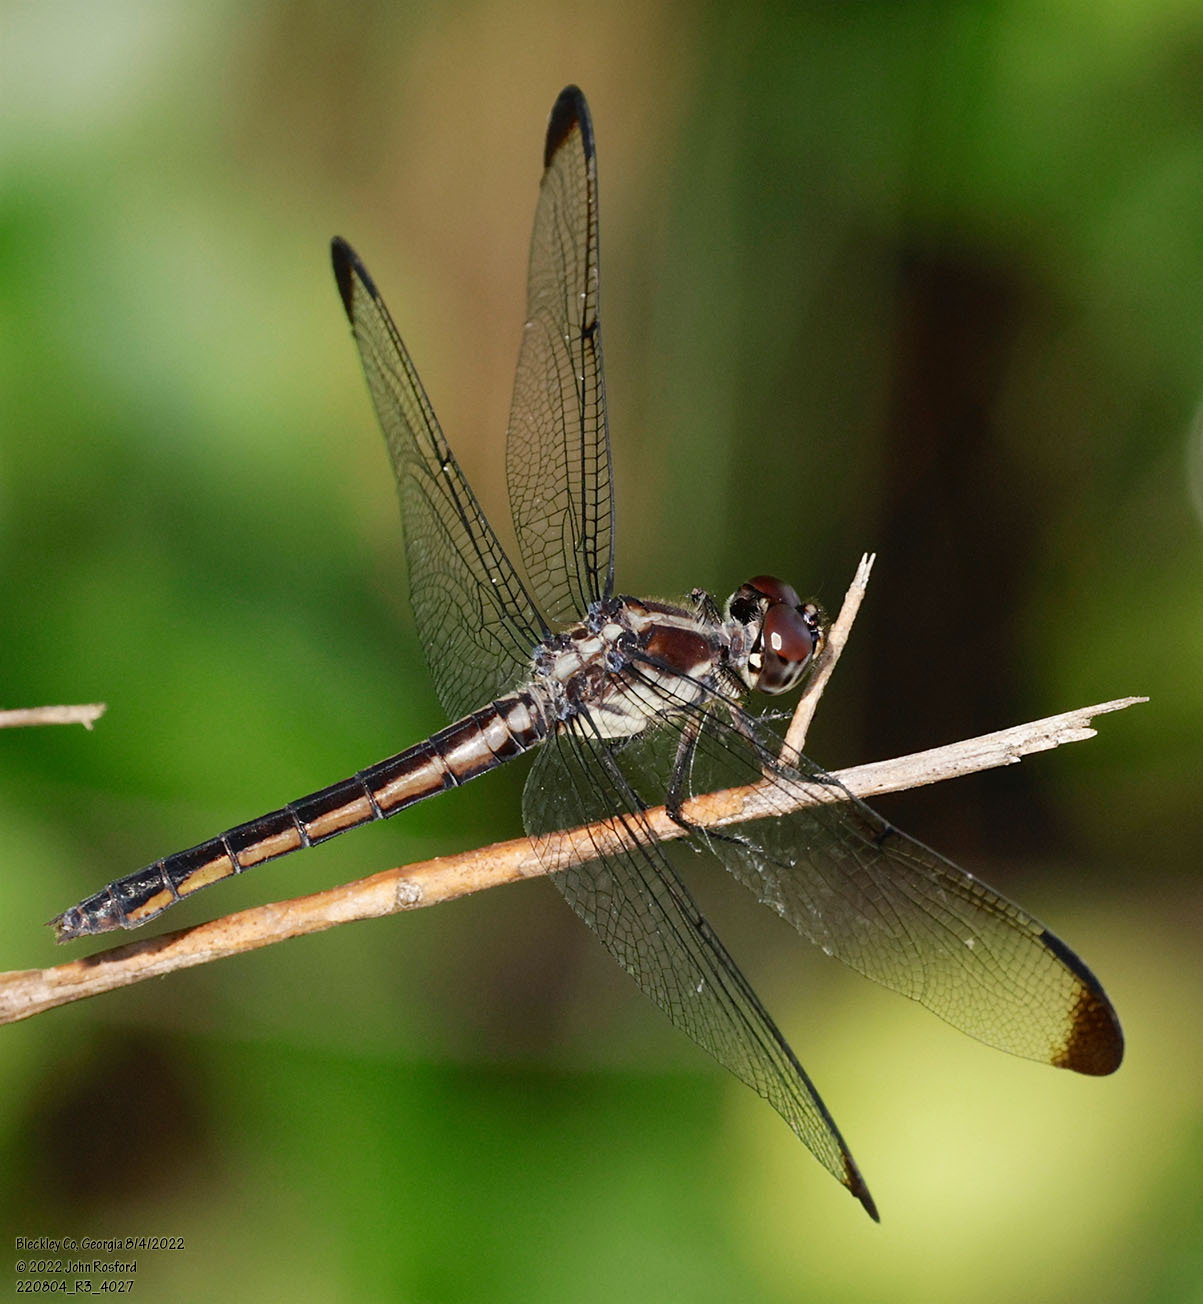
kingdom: Animalia
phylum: Arthropoda
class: Insecta
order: Odonata
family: Libellulidae
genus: Libellula
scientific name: Libellula incesta
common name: Slaty skimmer
